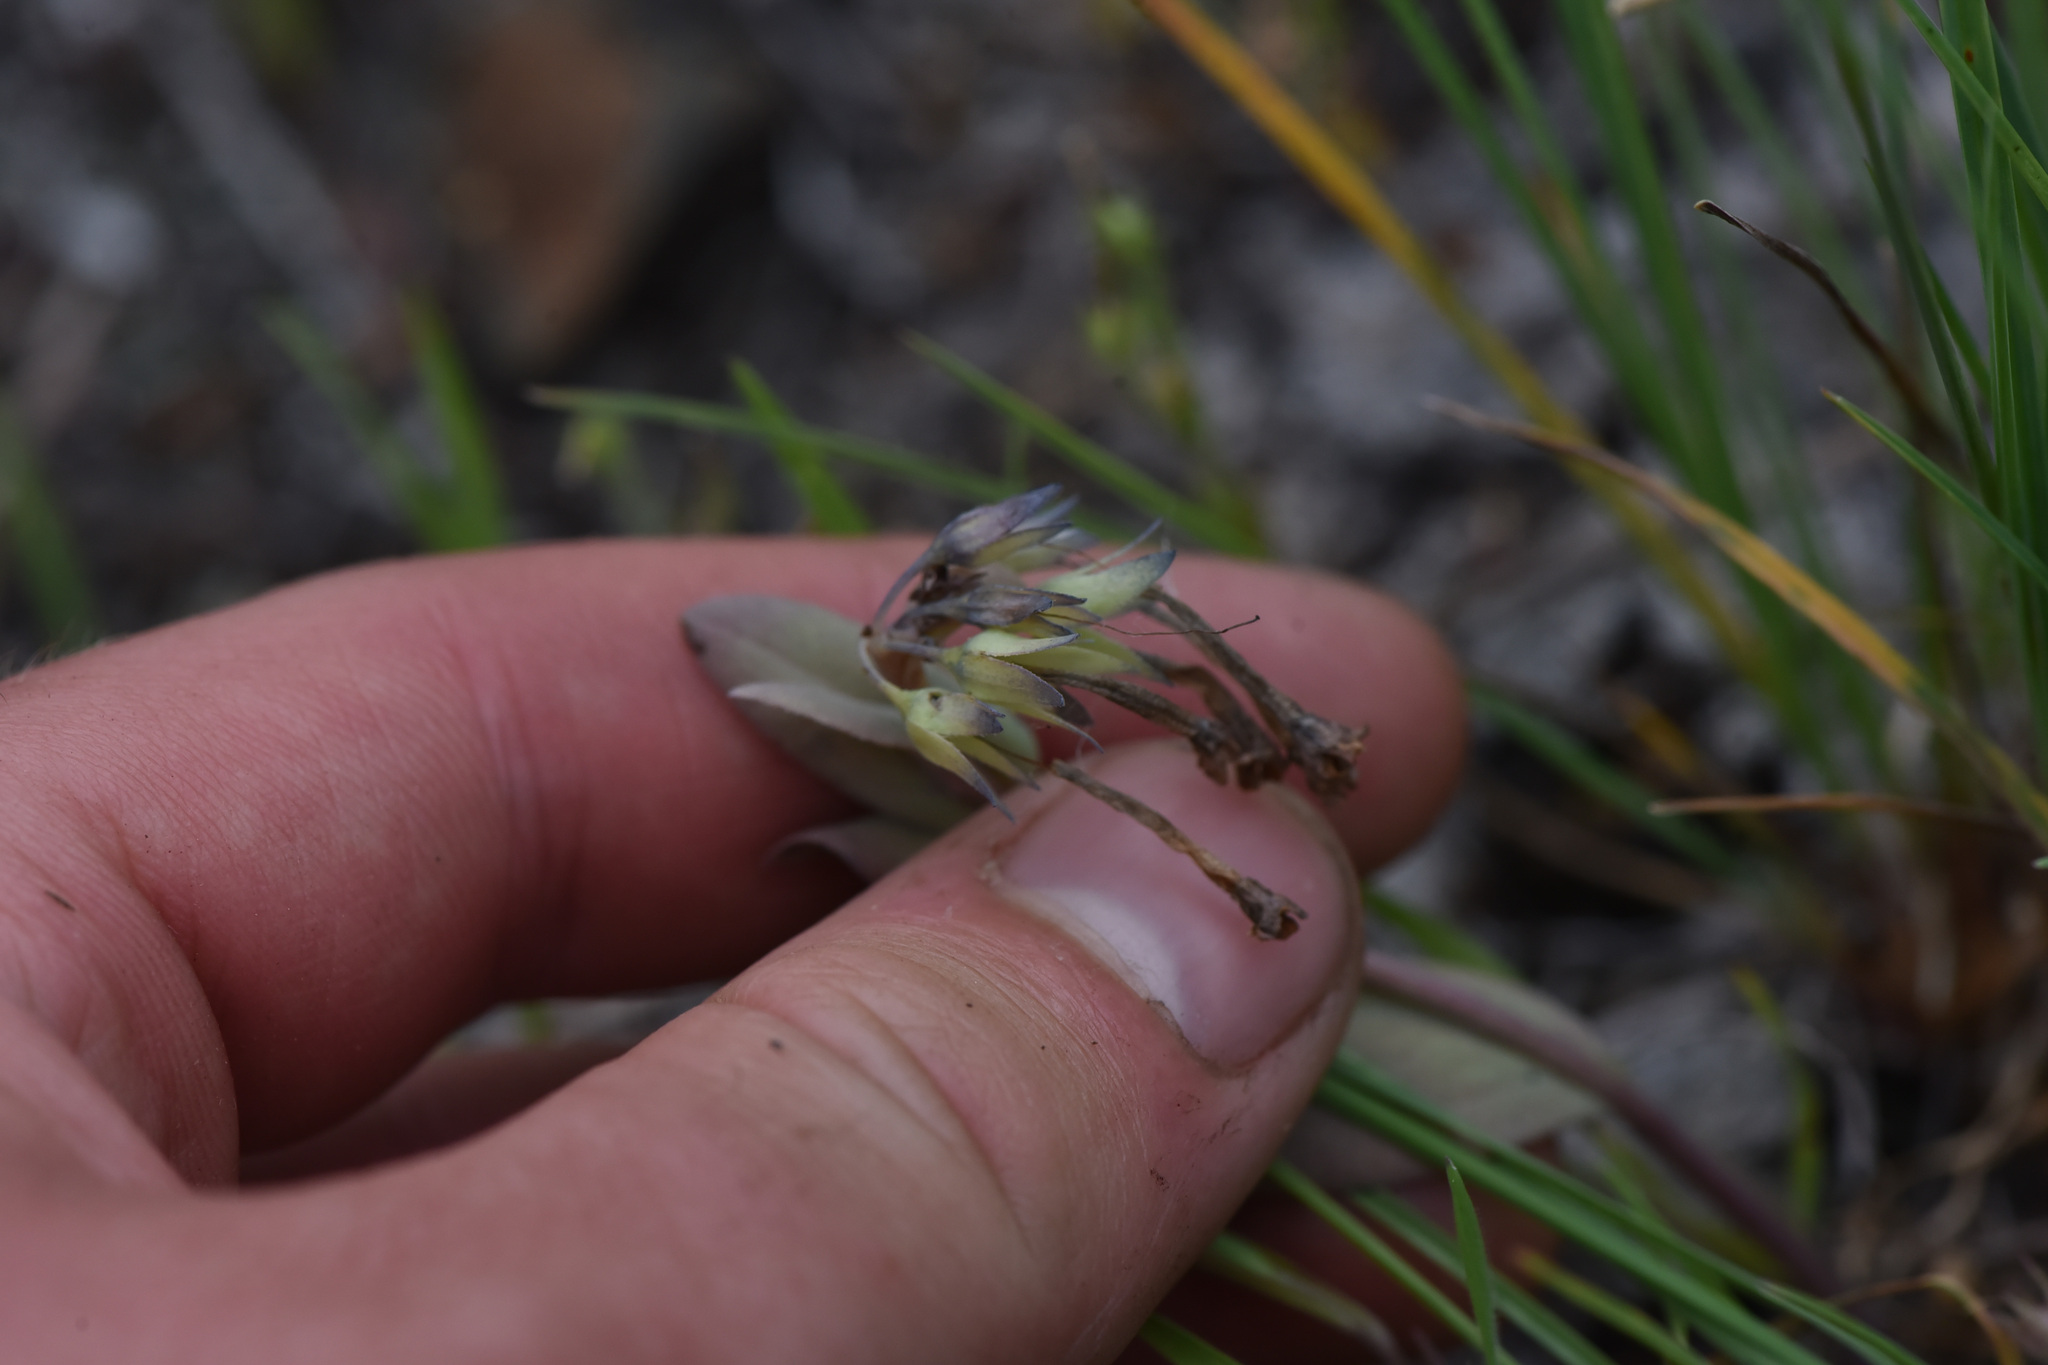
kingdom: Plantae
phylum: Tracheophyta
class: Magnoliopsida
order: Boraginales
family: Boraginaceae
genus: Mertensia
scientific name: Mertensia longiflora
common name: Large-flowered bluebells
